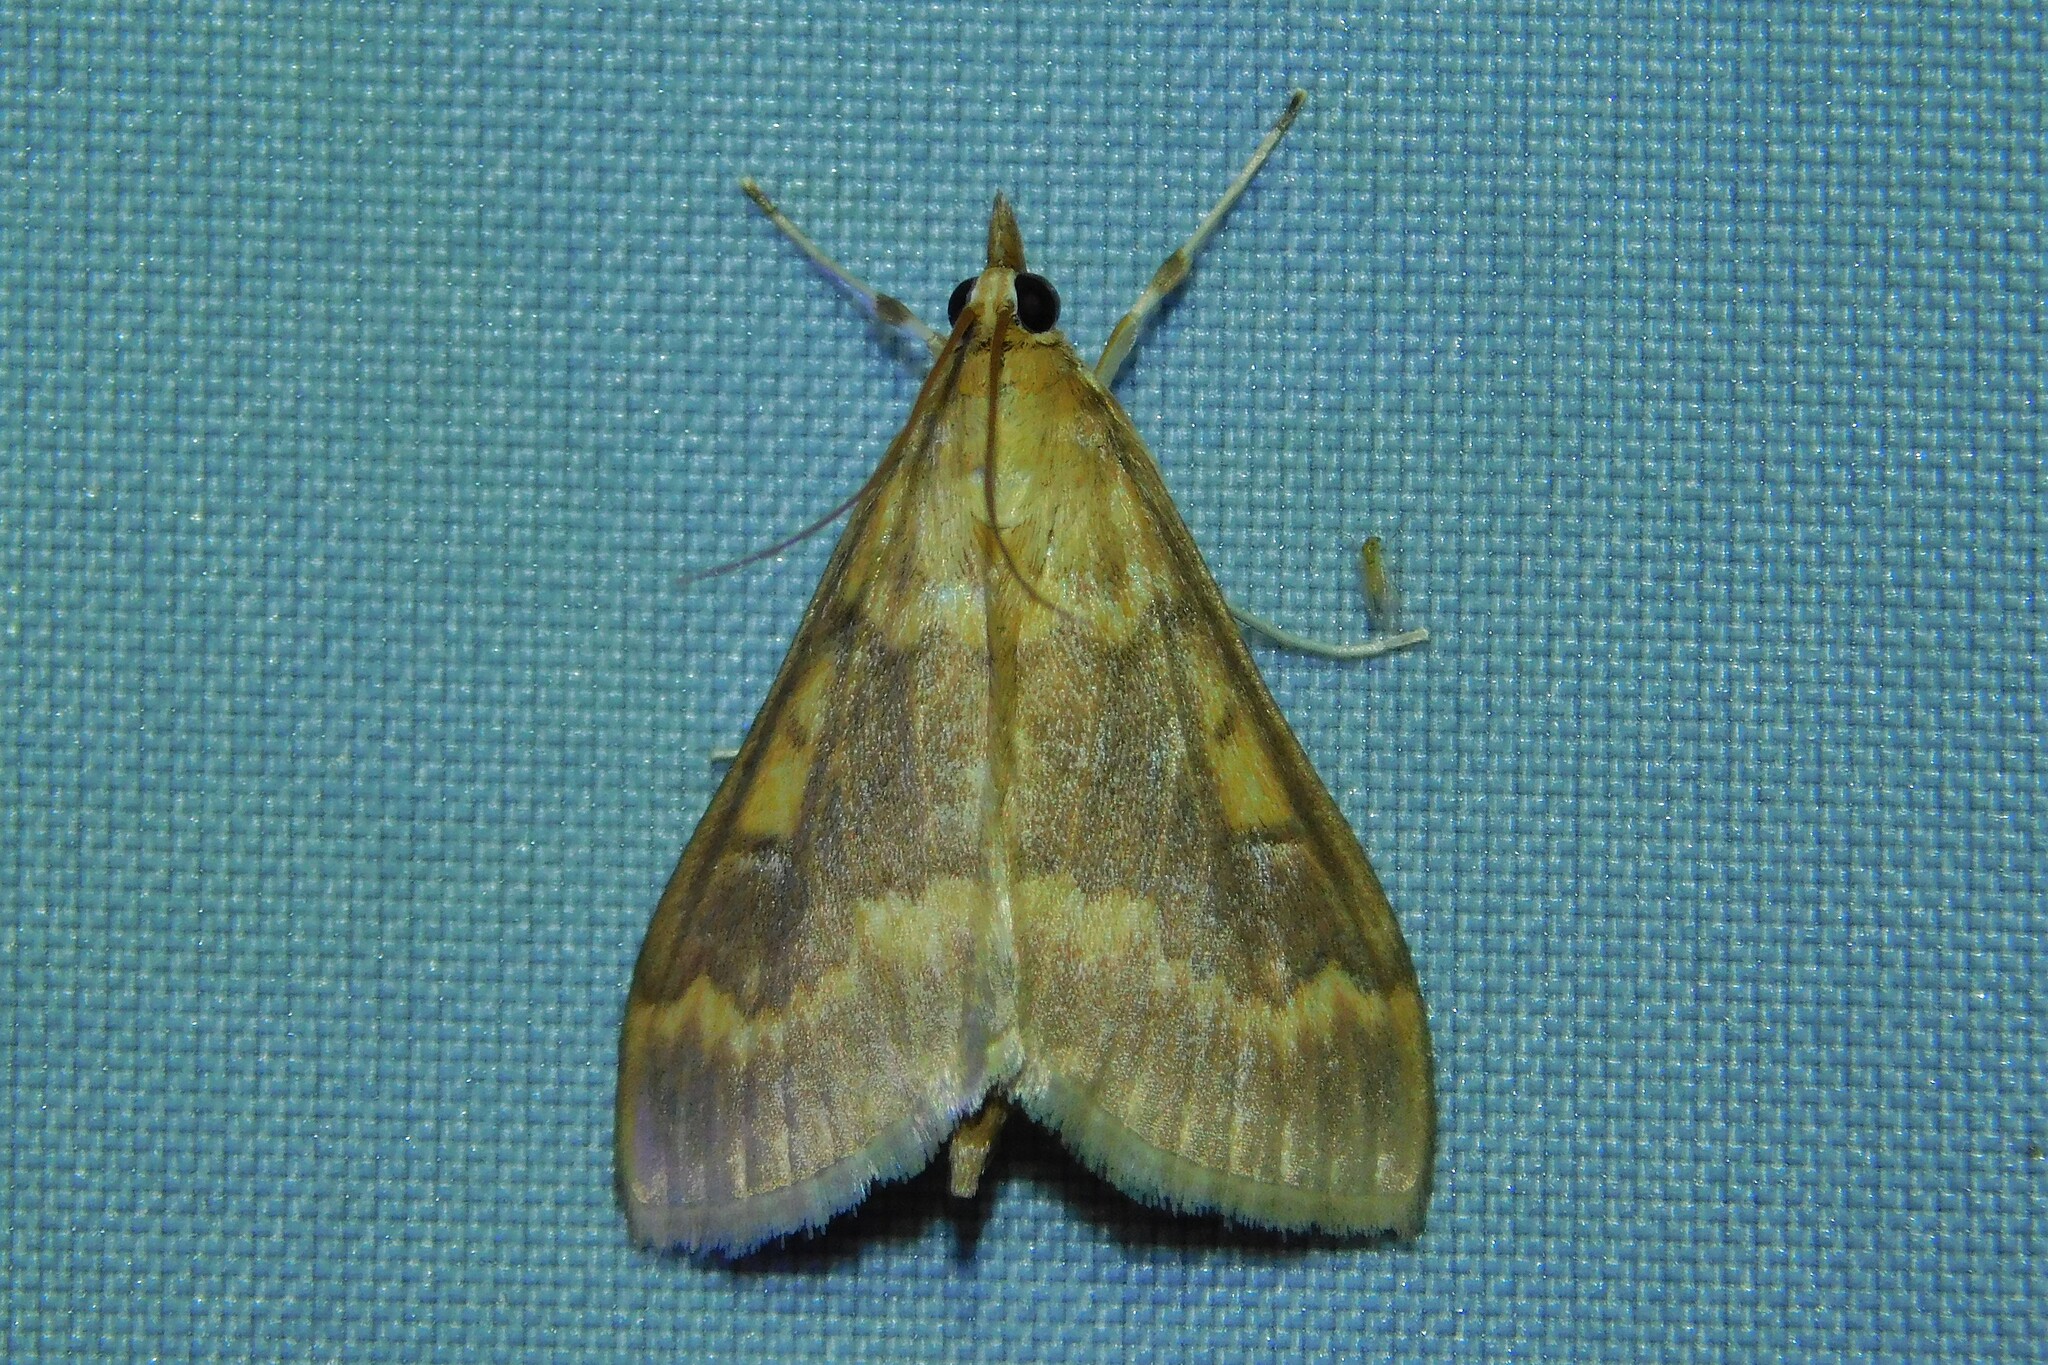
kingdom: Animalia
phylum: Arthropoda
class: Insecta
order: Lepidoptera
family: Crambidae
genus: Ostrinia
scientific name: Ostrinia nubilalis
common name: European corn borer
